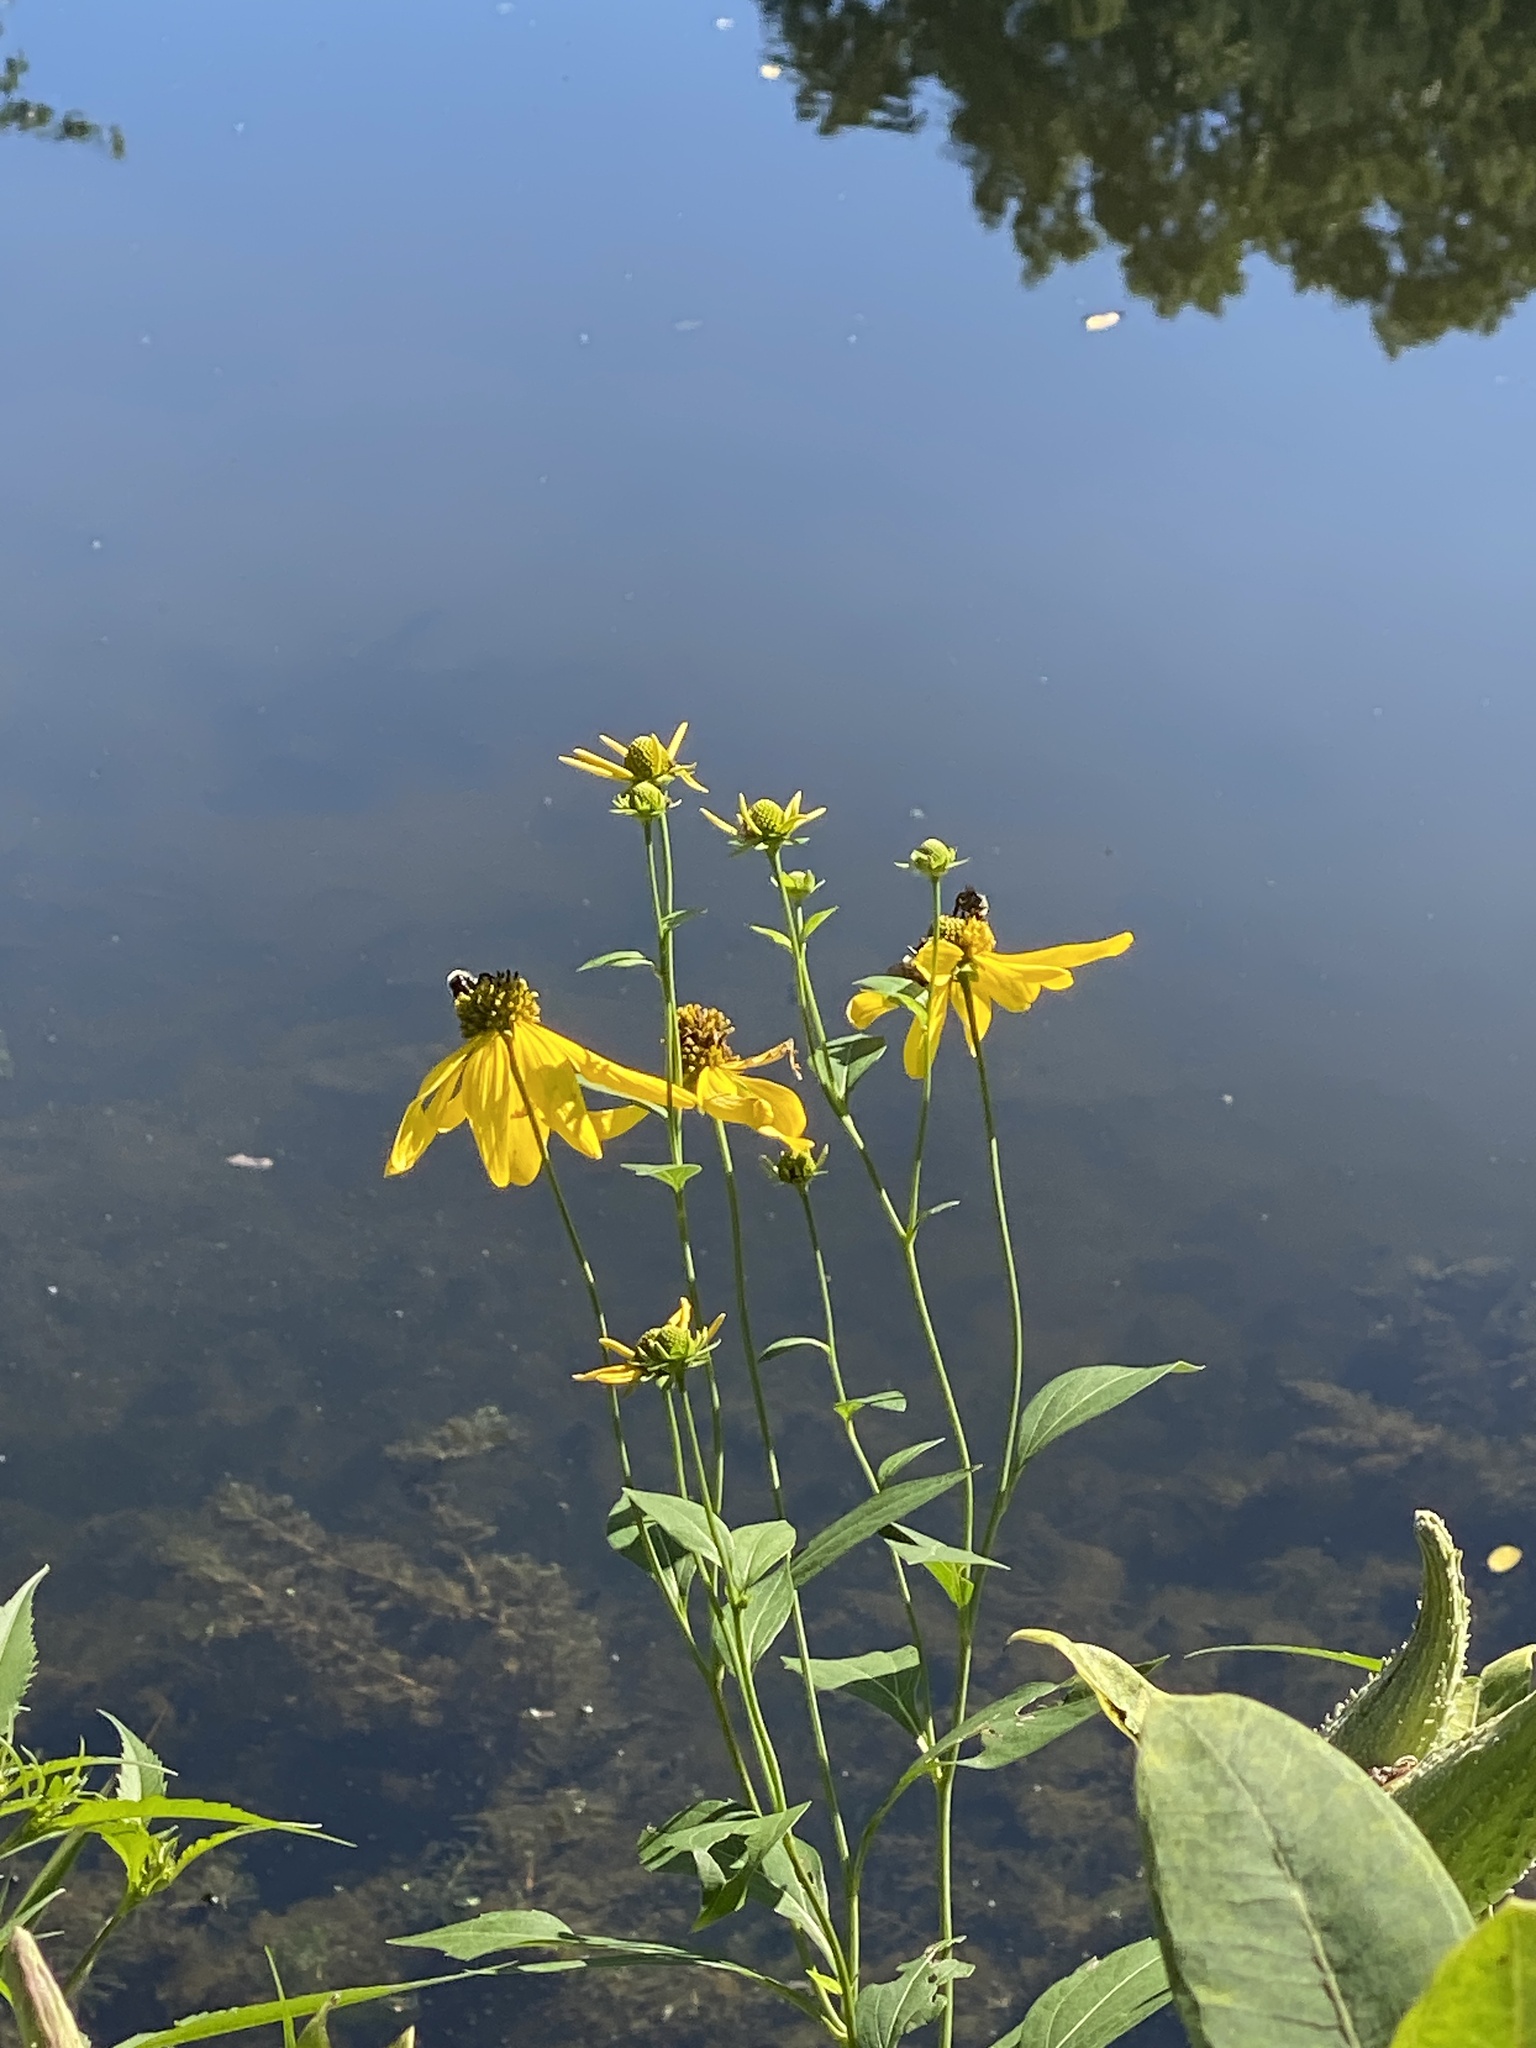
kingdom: Plantae
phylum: Tracheophyta
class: Magnoliopsida
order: Asterales
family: Asteraceae
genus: Rudbeckia
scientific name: Rudbeckia laciniata
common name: Coneflower
